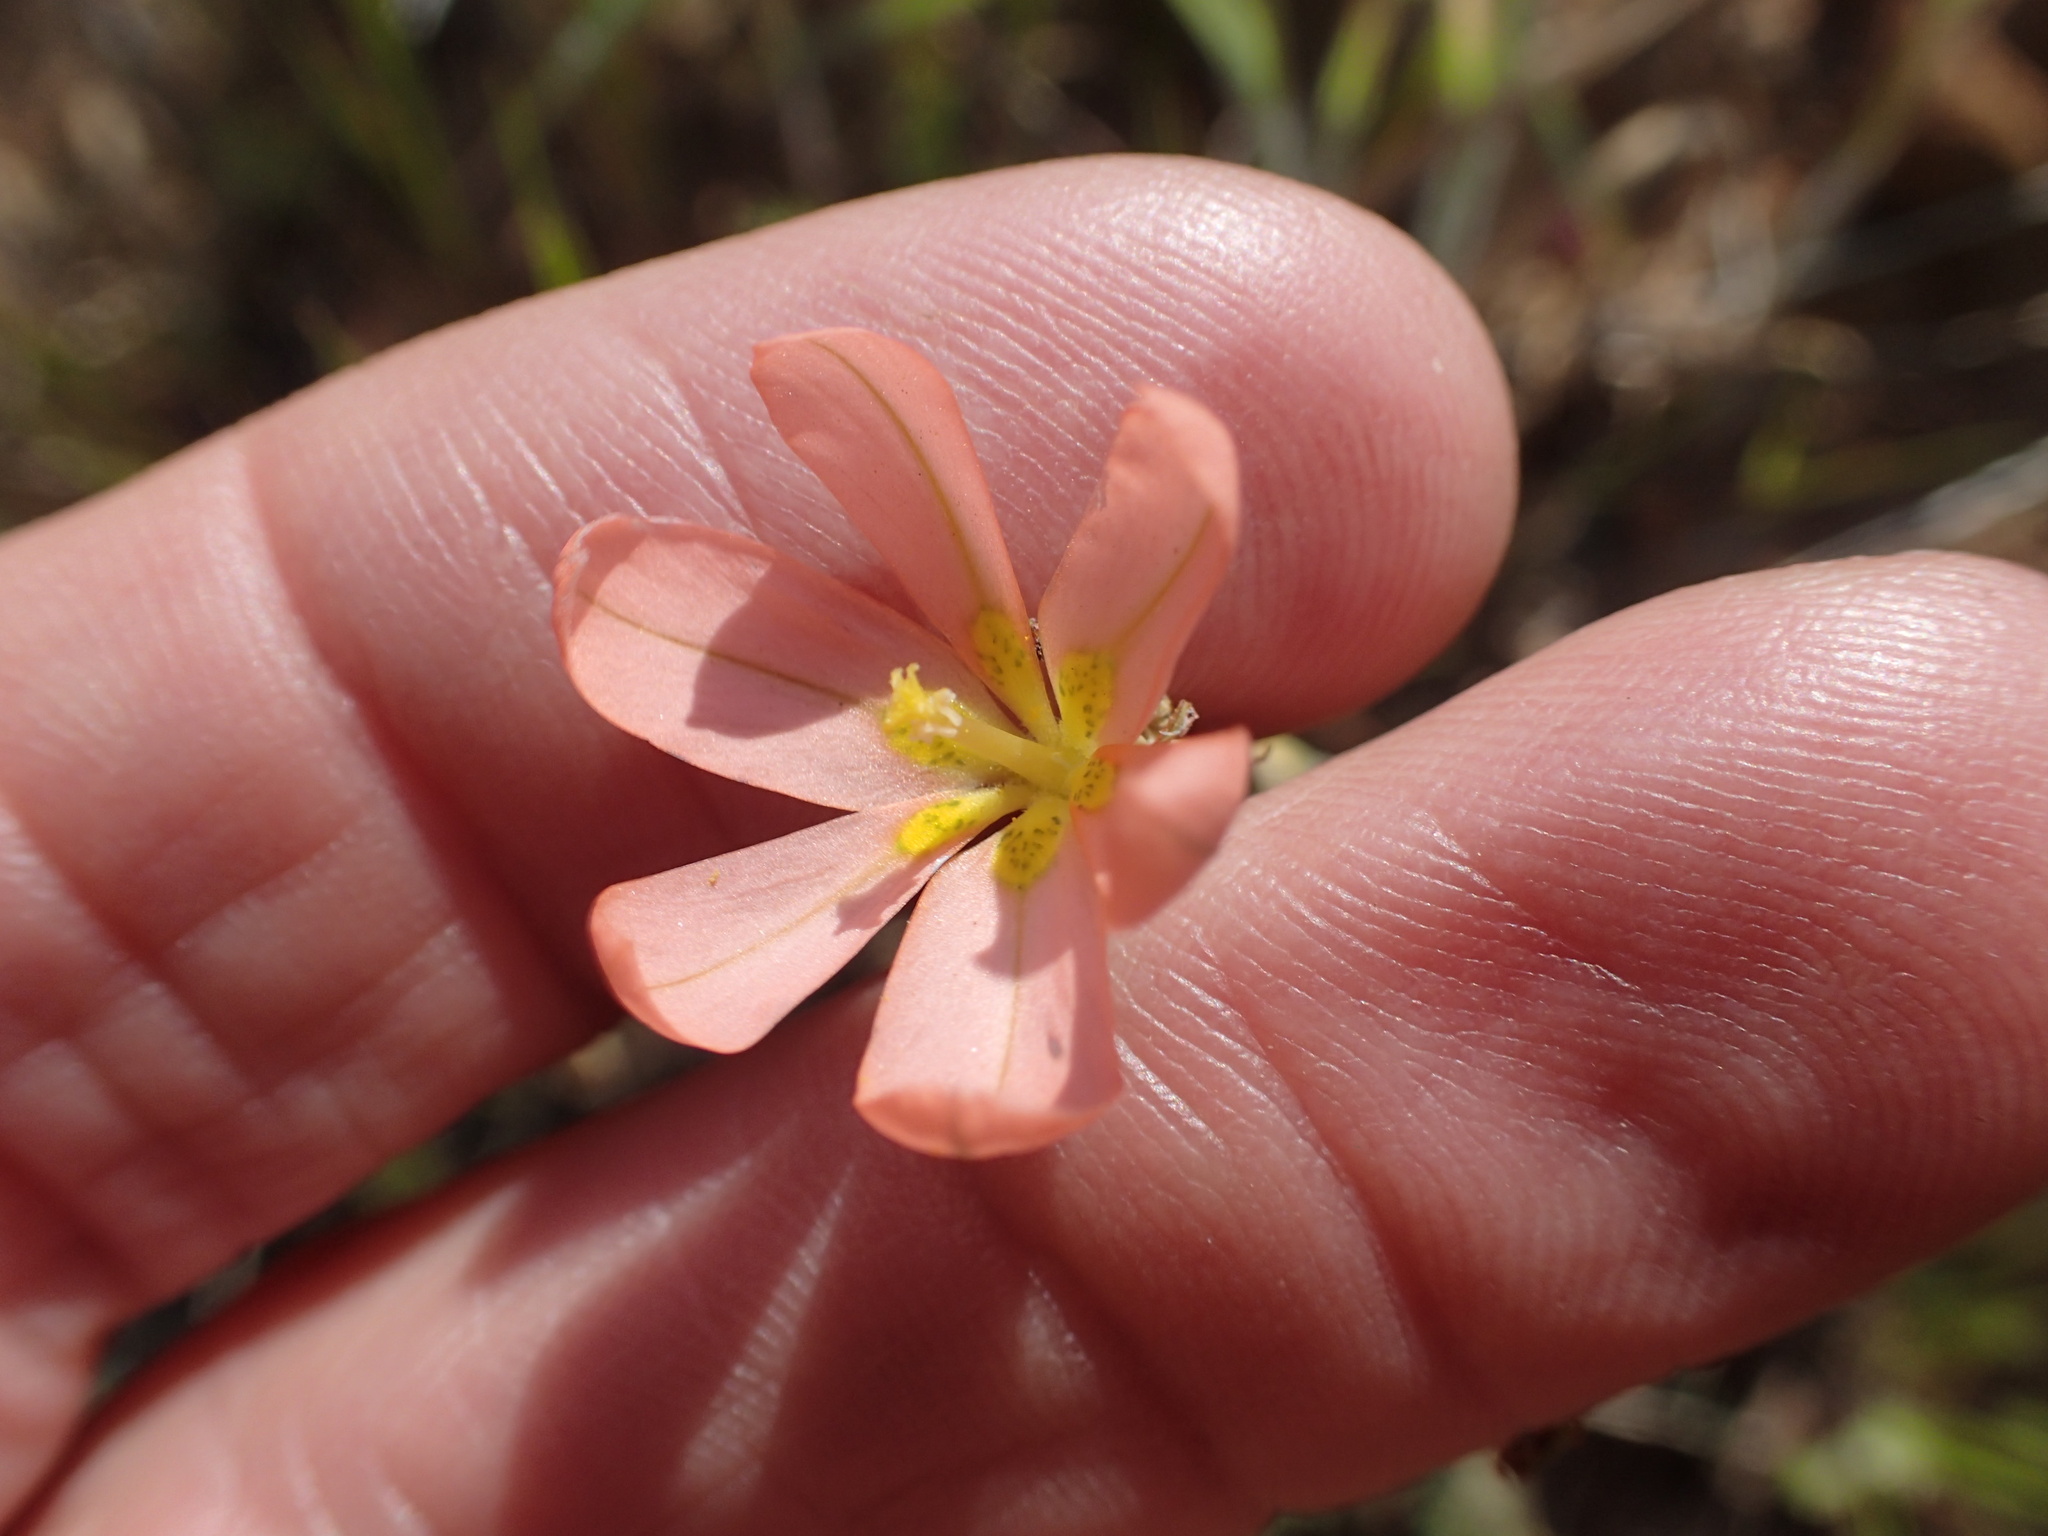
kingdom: Plantae
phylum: Tracheophyta
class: Liliopsida
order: Asparagales
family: Iridaceae
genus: Moraea
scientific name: Moraea miniata
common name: Two-leaf cape-tulip
